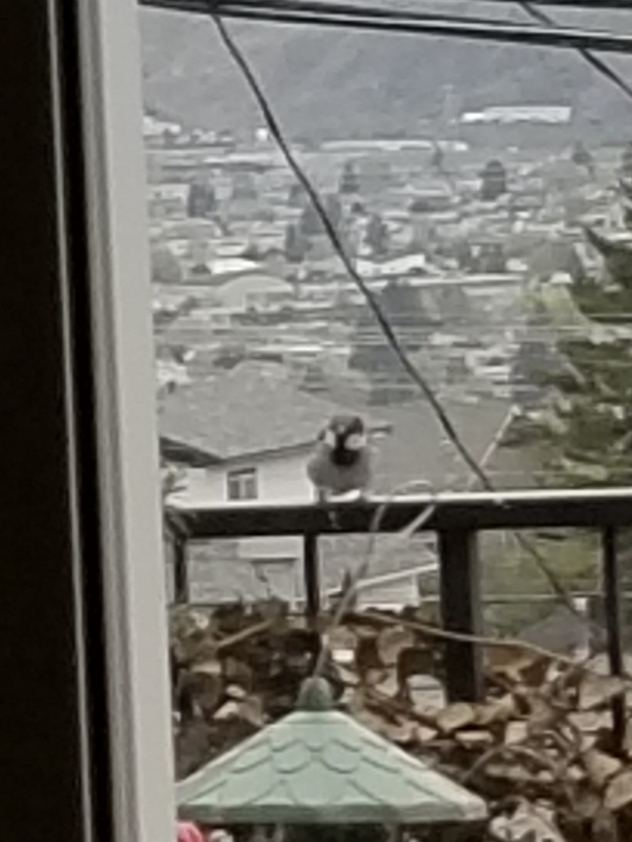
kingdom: Animalia
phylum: Chordata
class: Aves
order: Passeriformes
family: Passeridae
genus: Passer
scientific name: Passer domesticus
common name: House sparrow
